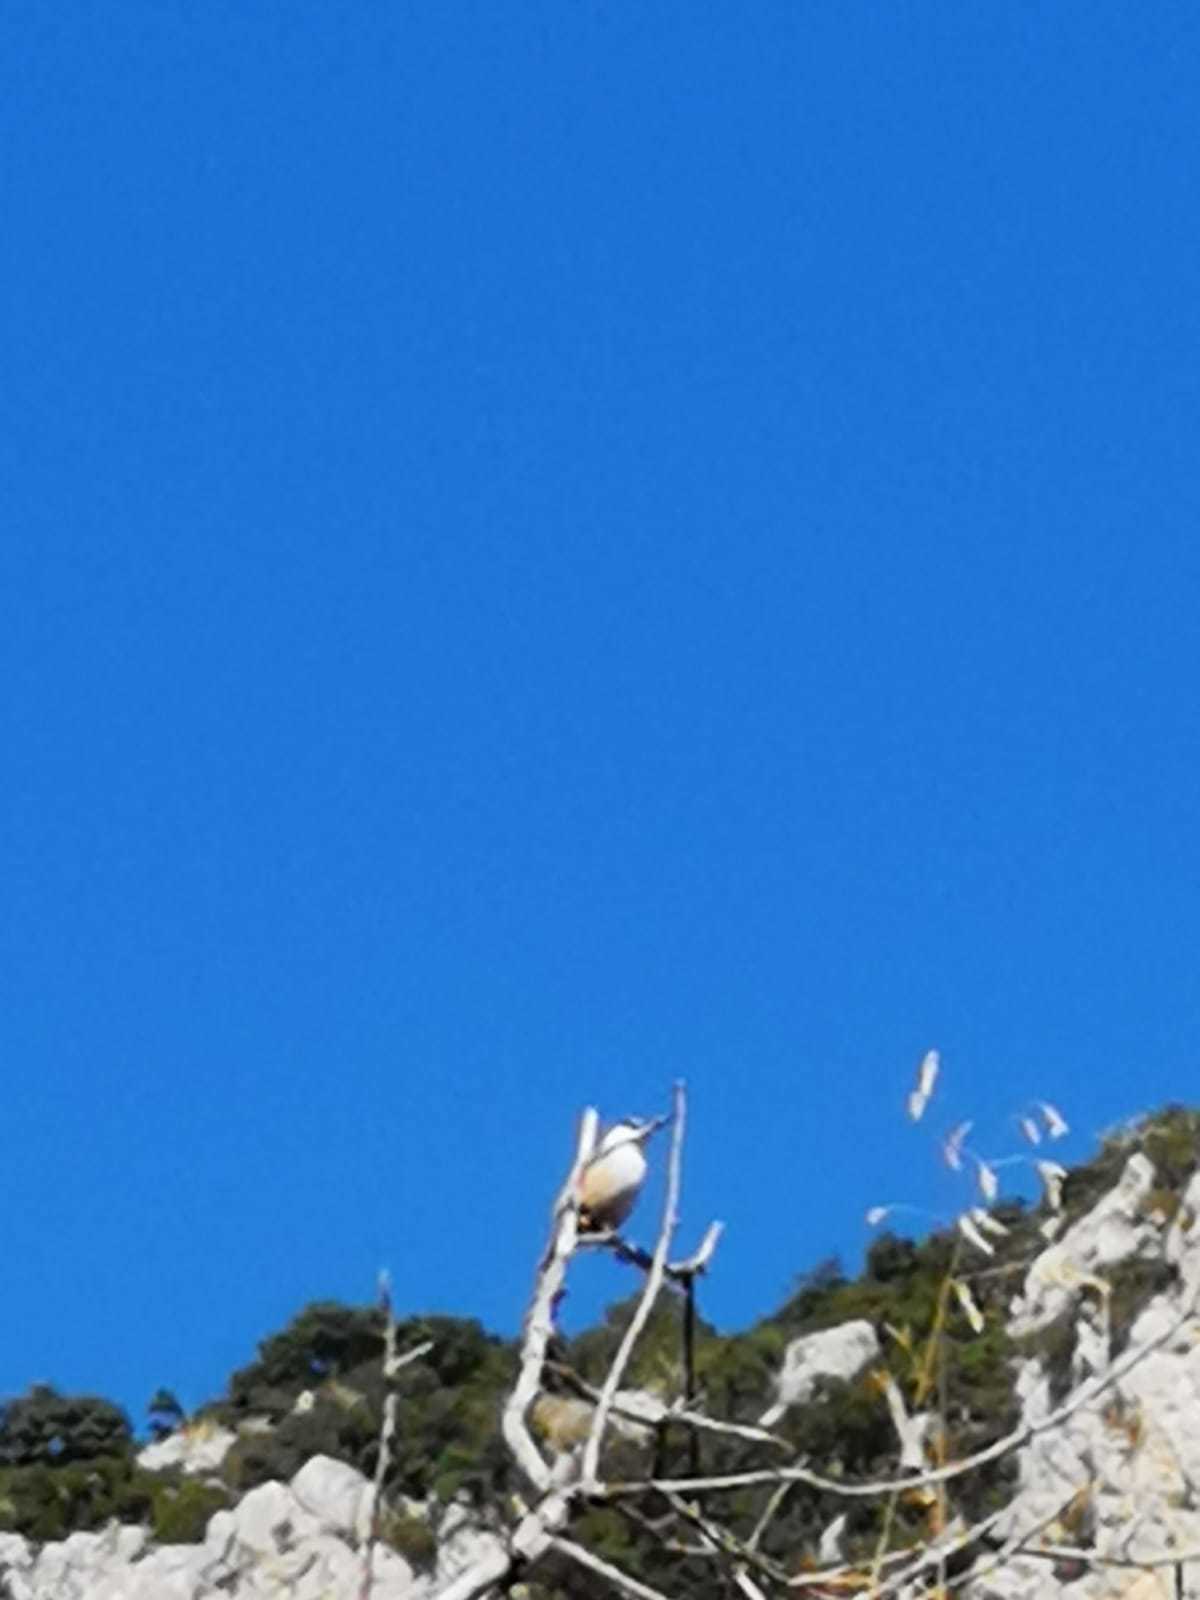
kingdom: Animalia
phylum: Chordata
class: Aves
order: Passeriformes
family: Sittidae
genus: Sitta
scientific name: Sitta neumayer
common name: Western rock nuthatch
